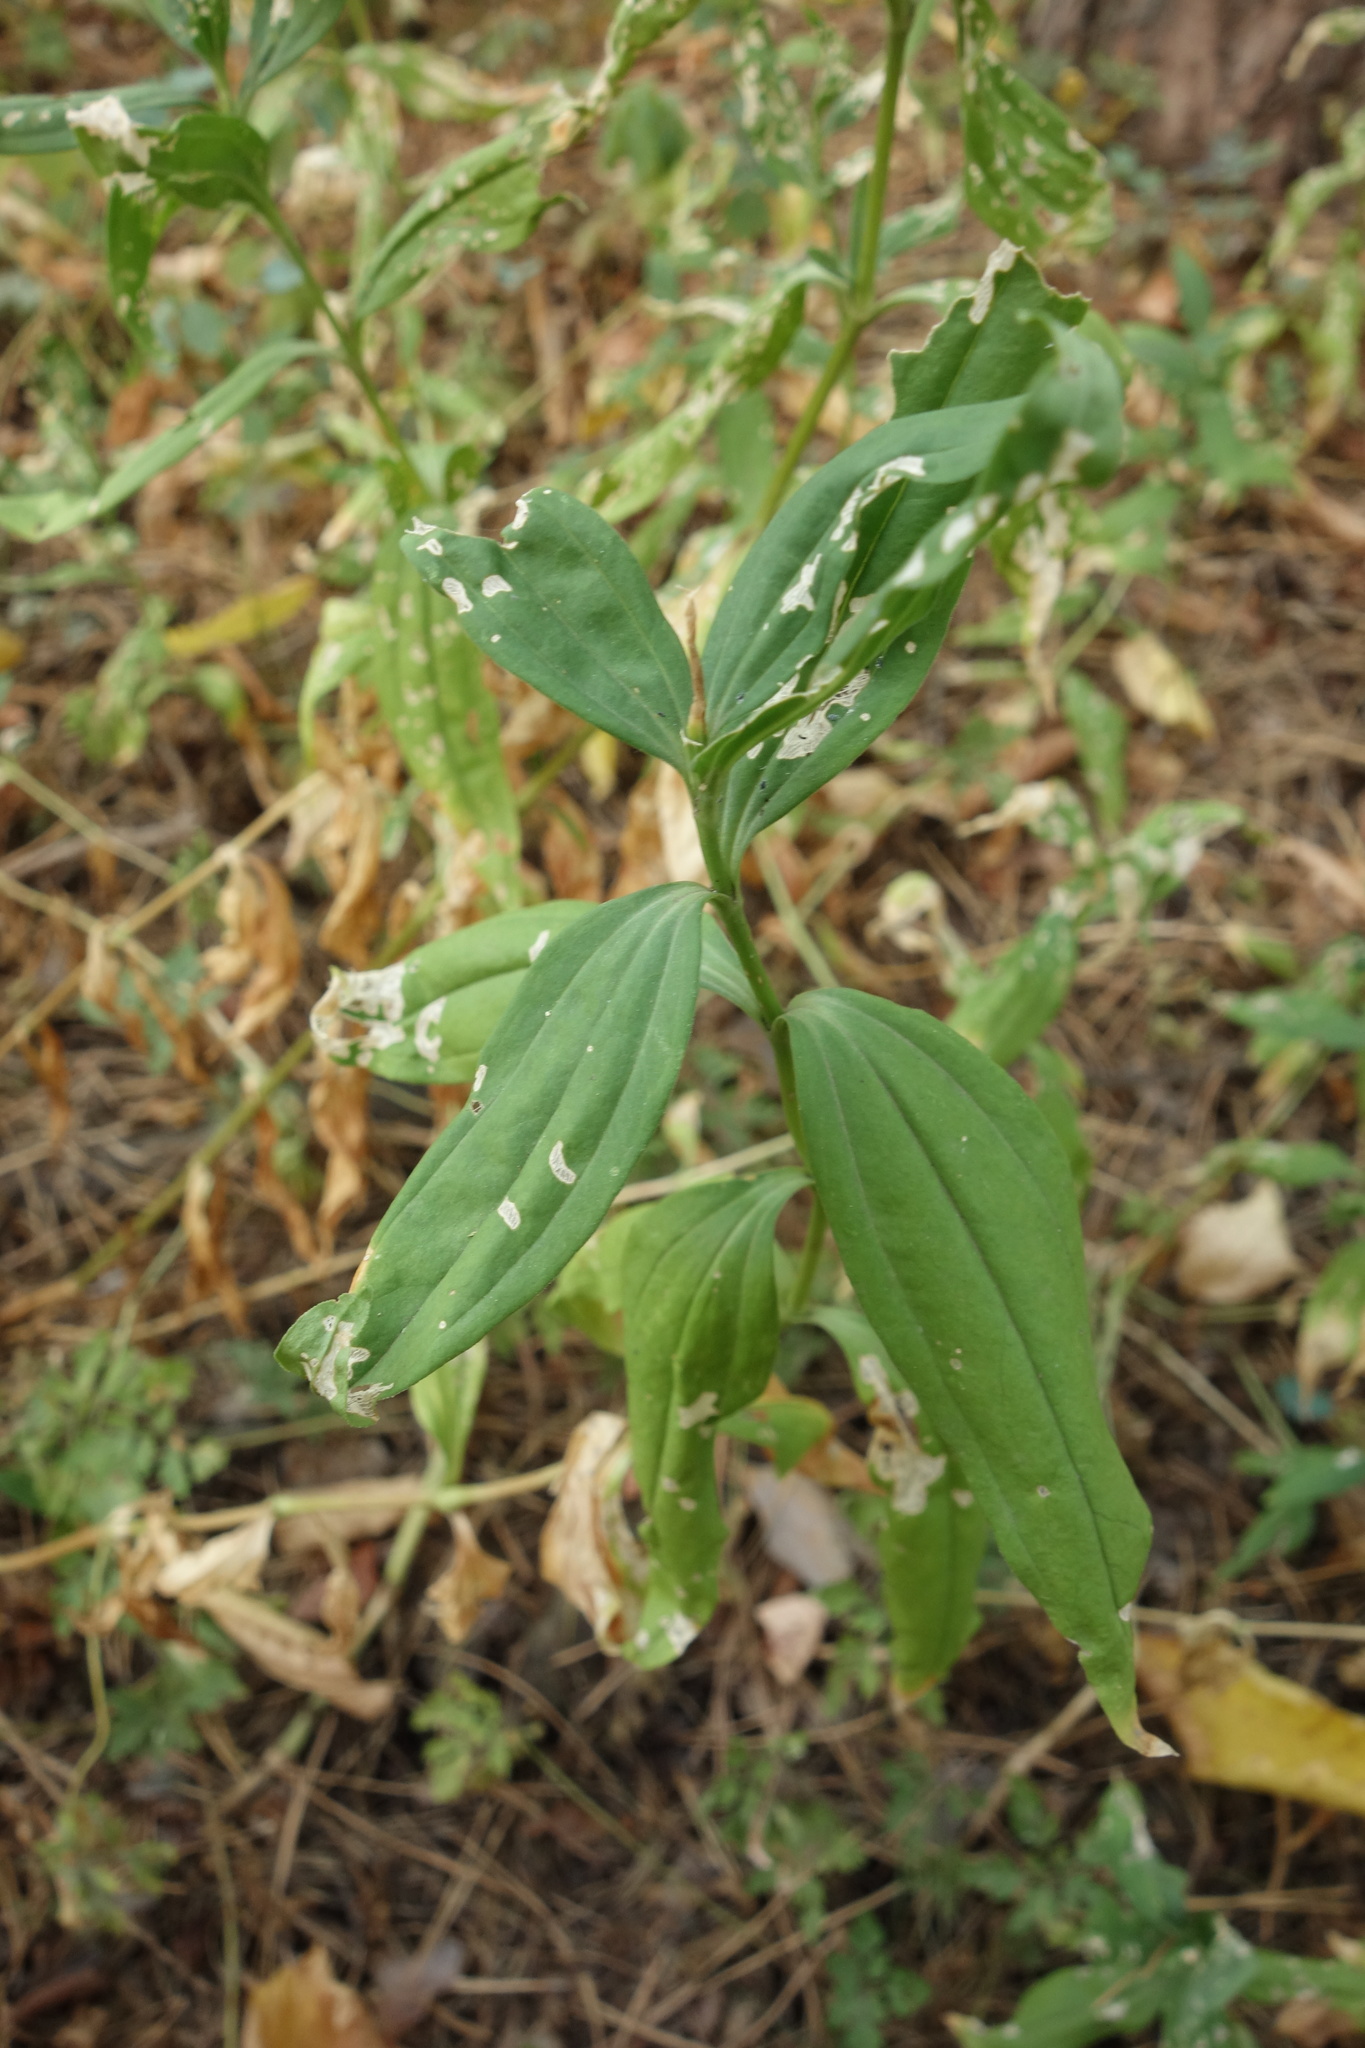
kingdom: Plantae
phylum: Tracheophyta
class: Magnoliopsida
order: Caryophyllales
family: Caryophyllaceae
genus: Saponaria
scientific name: Saponaria officinalis
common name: Soapwort
